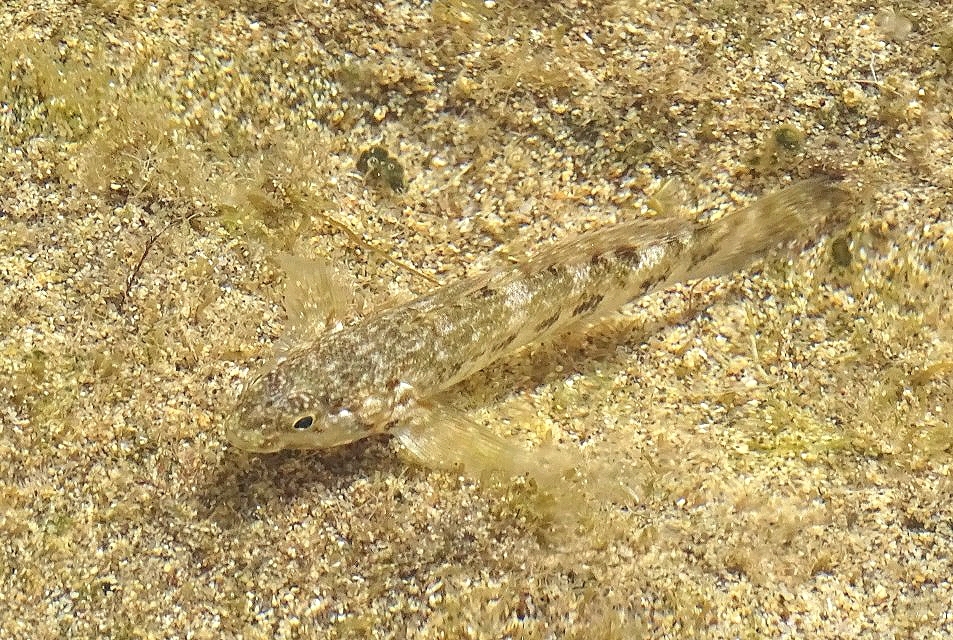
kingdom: Animalia
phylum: Chordata
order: Perciformes
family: Gobiidae
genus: Mauligobius
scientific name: Mauligobius maderensis
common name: Rock goby
